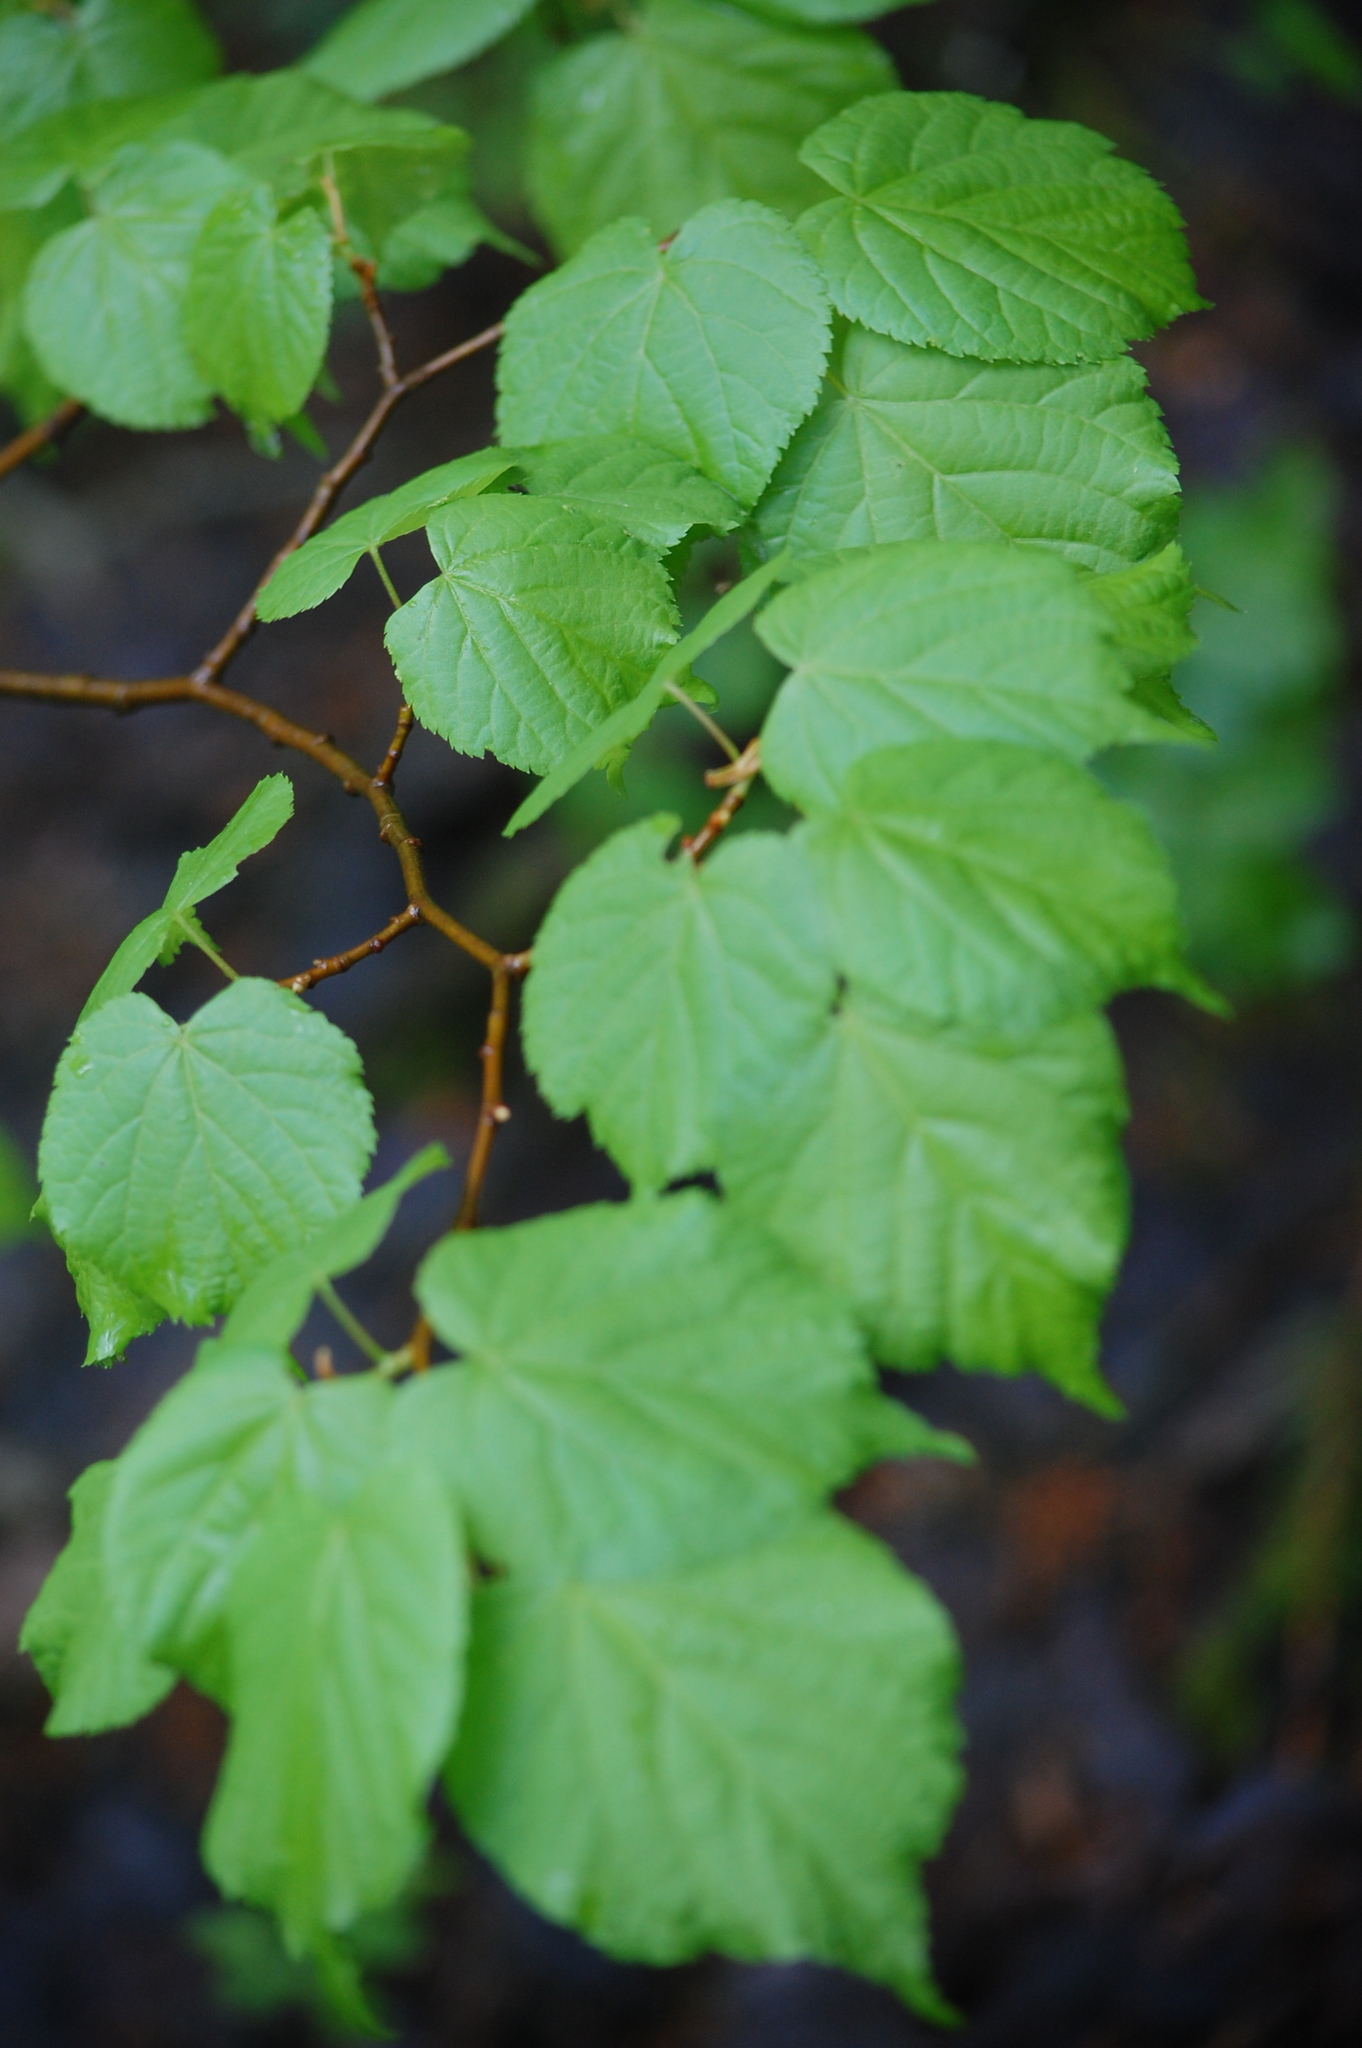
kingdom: Plantae
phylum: Tracheophyta
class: Magnoliopsida
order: Malvales
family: Malvaceae
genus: Tilia
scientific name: Tilia cordata
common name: Small-leaved lime
